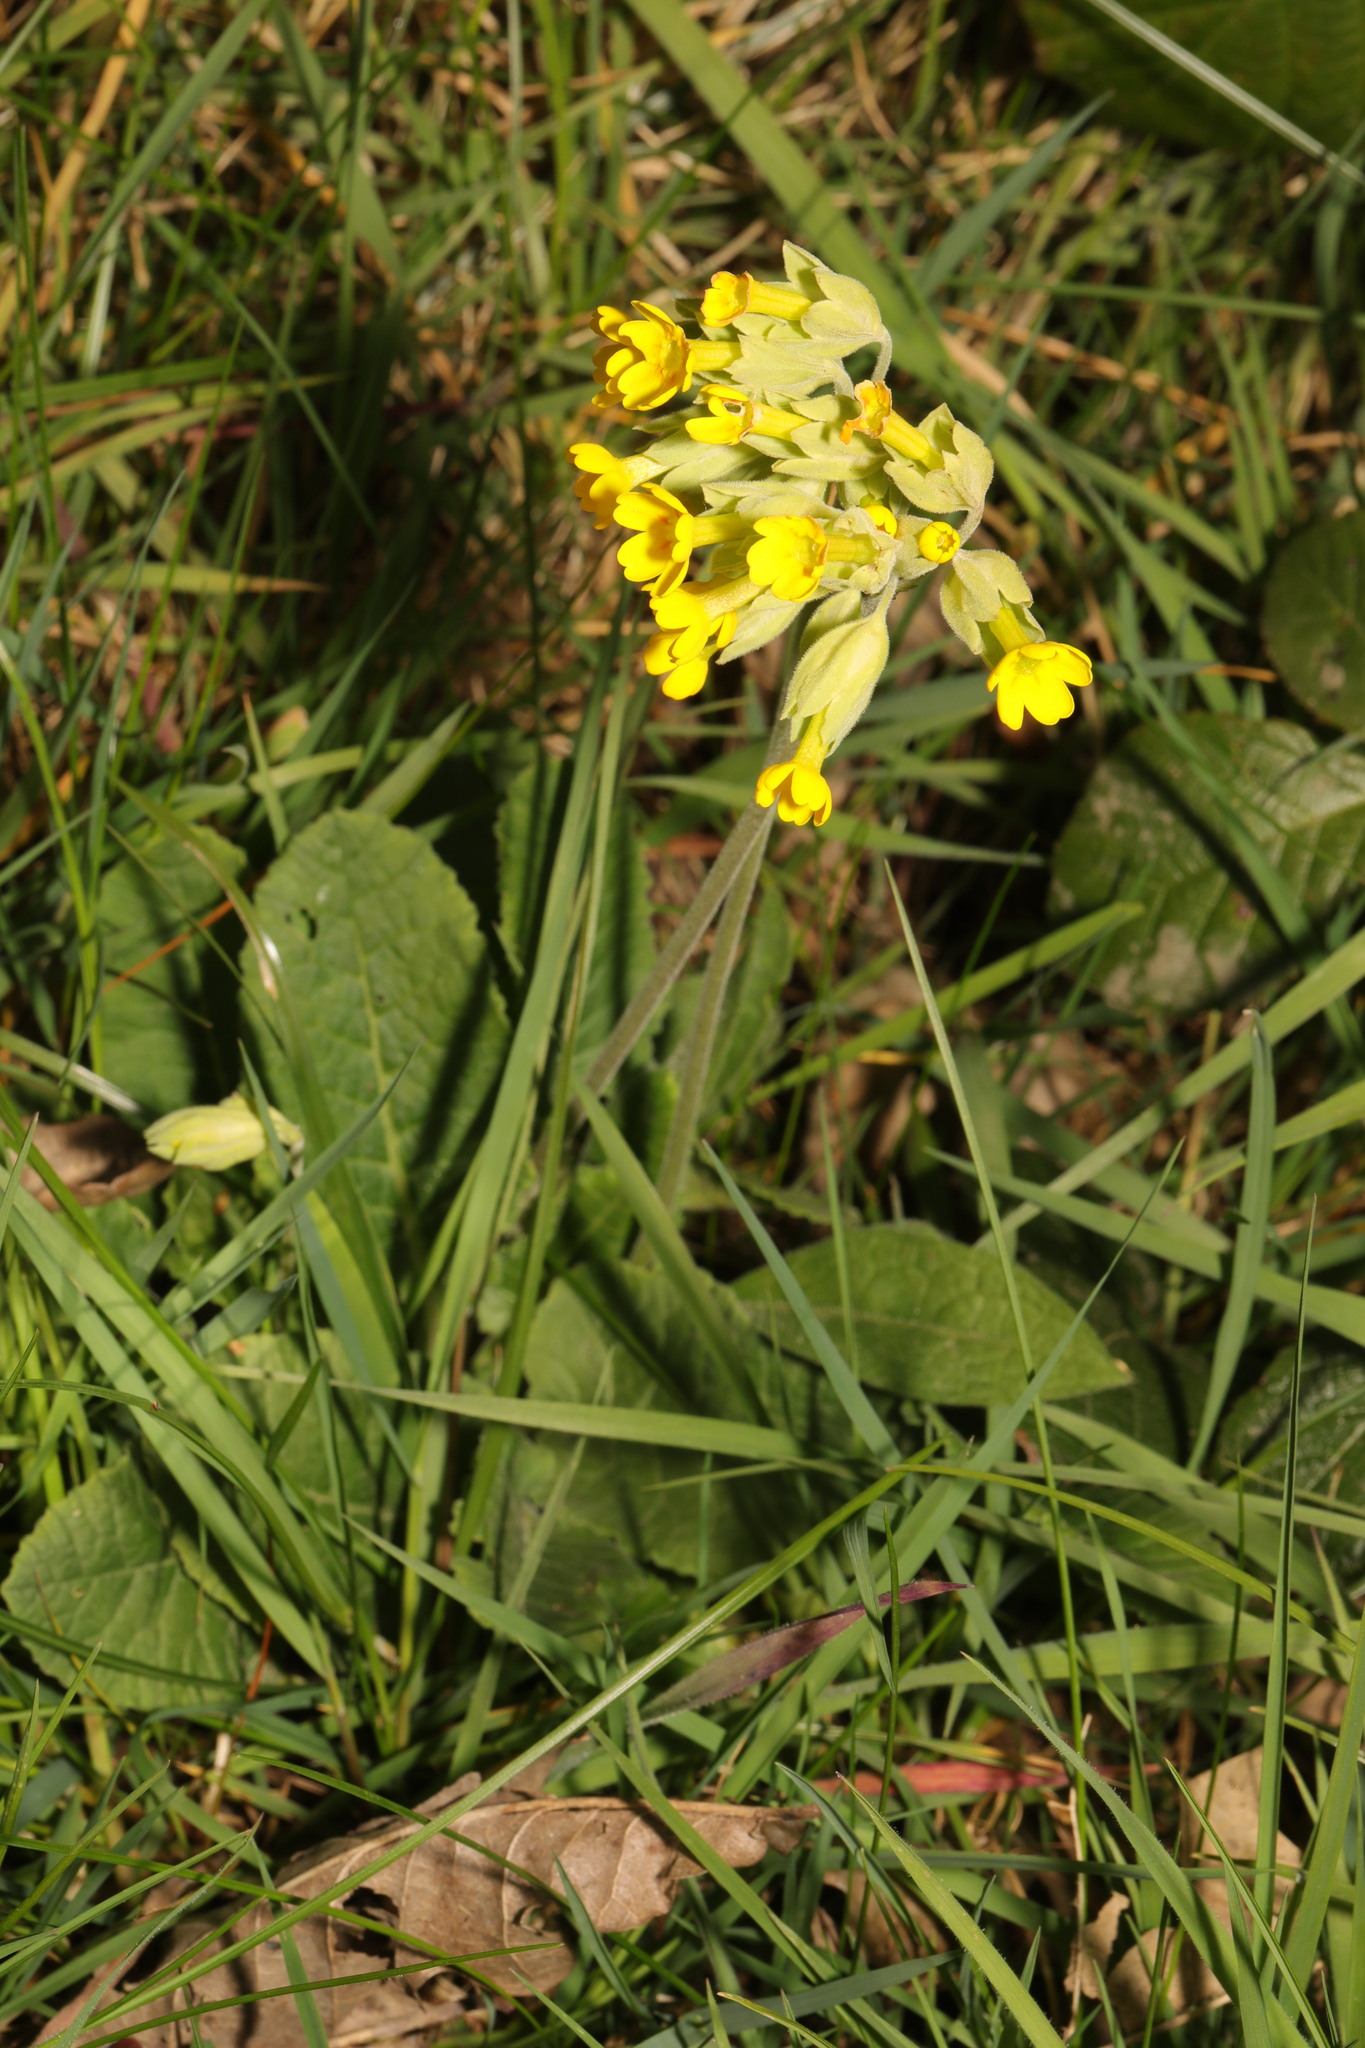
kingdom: Plantae
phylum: Tracheophyta
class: Magnoliopsida
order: Ericales
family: Primulaceae
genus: Primula
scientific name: Primula veris
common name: Cowslip
